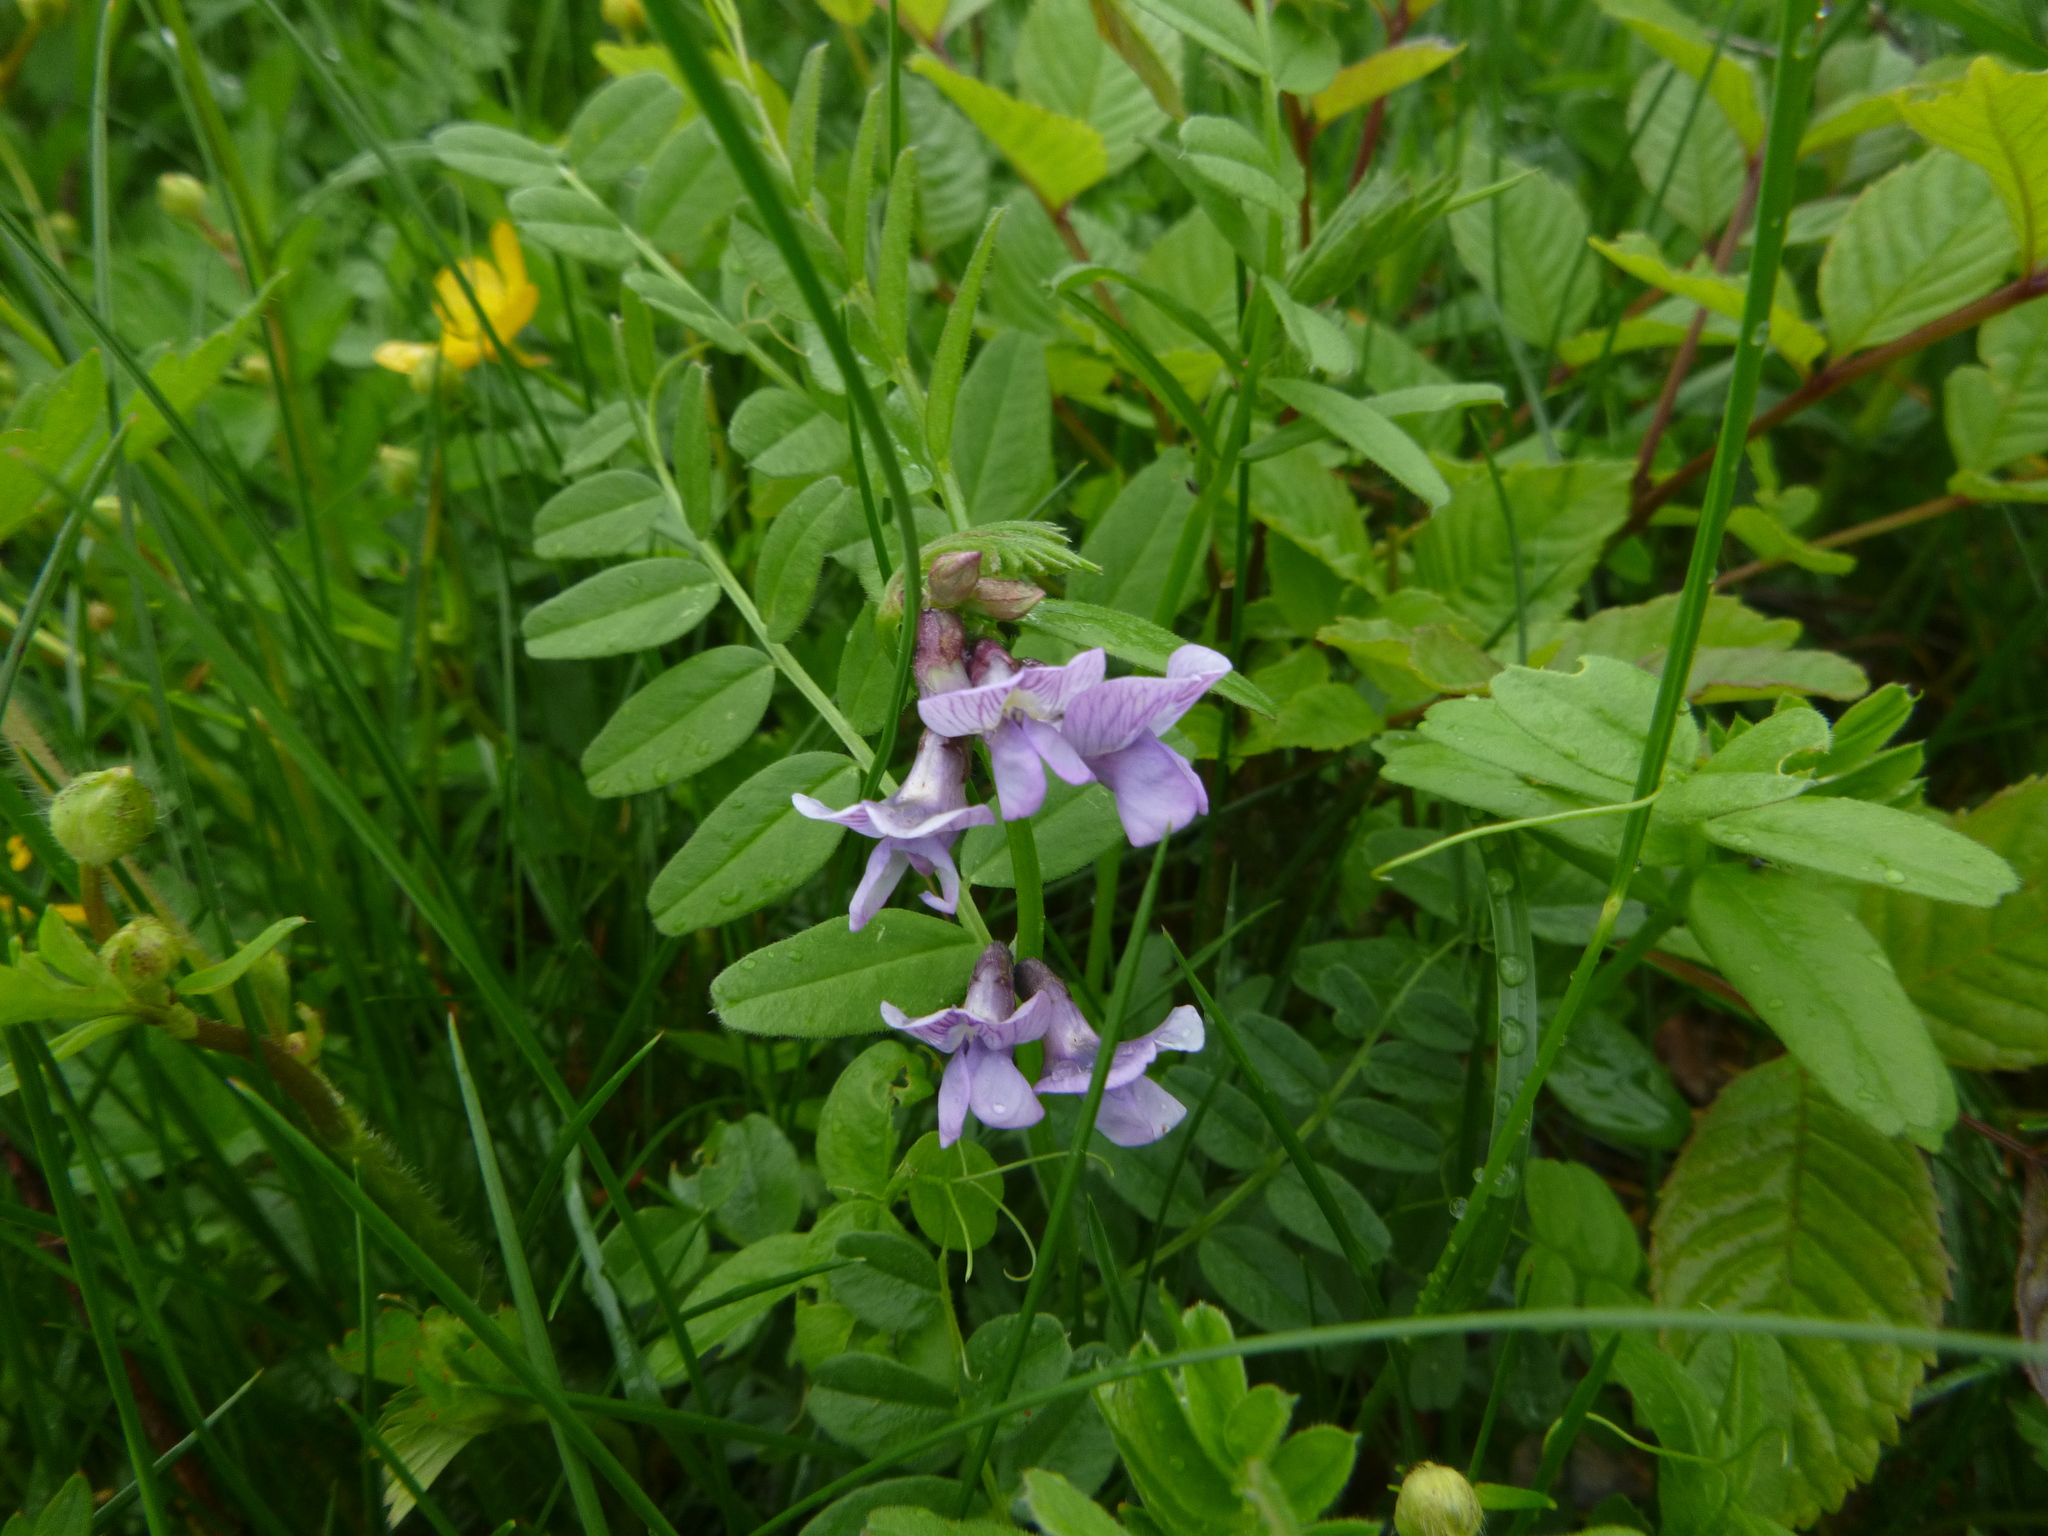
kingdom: Plantae
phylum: Tracheophyta
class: Magnoliopsida
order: Fabales
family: Fabaceae
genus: Vicia
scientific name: Vicia sepium
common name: Bush vetch
